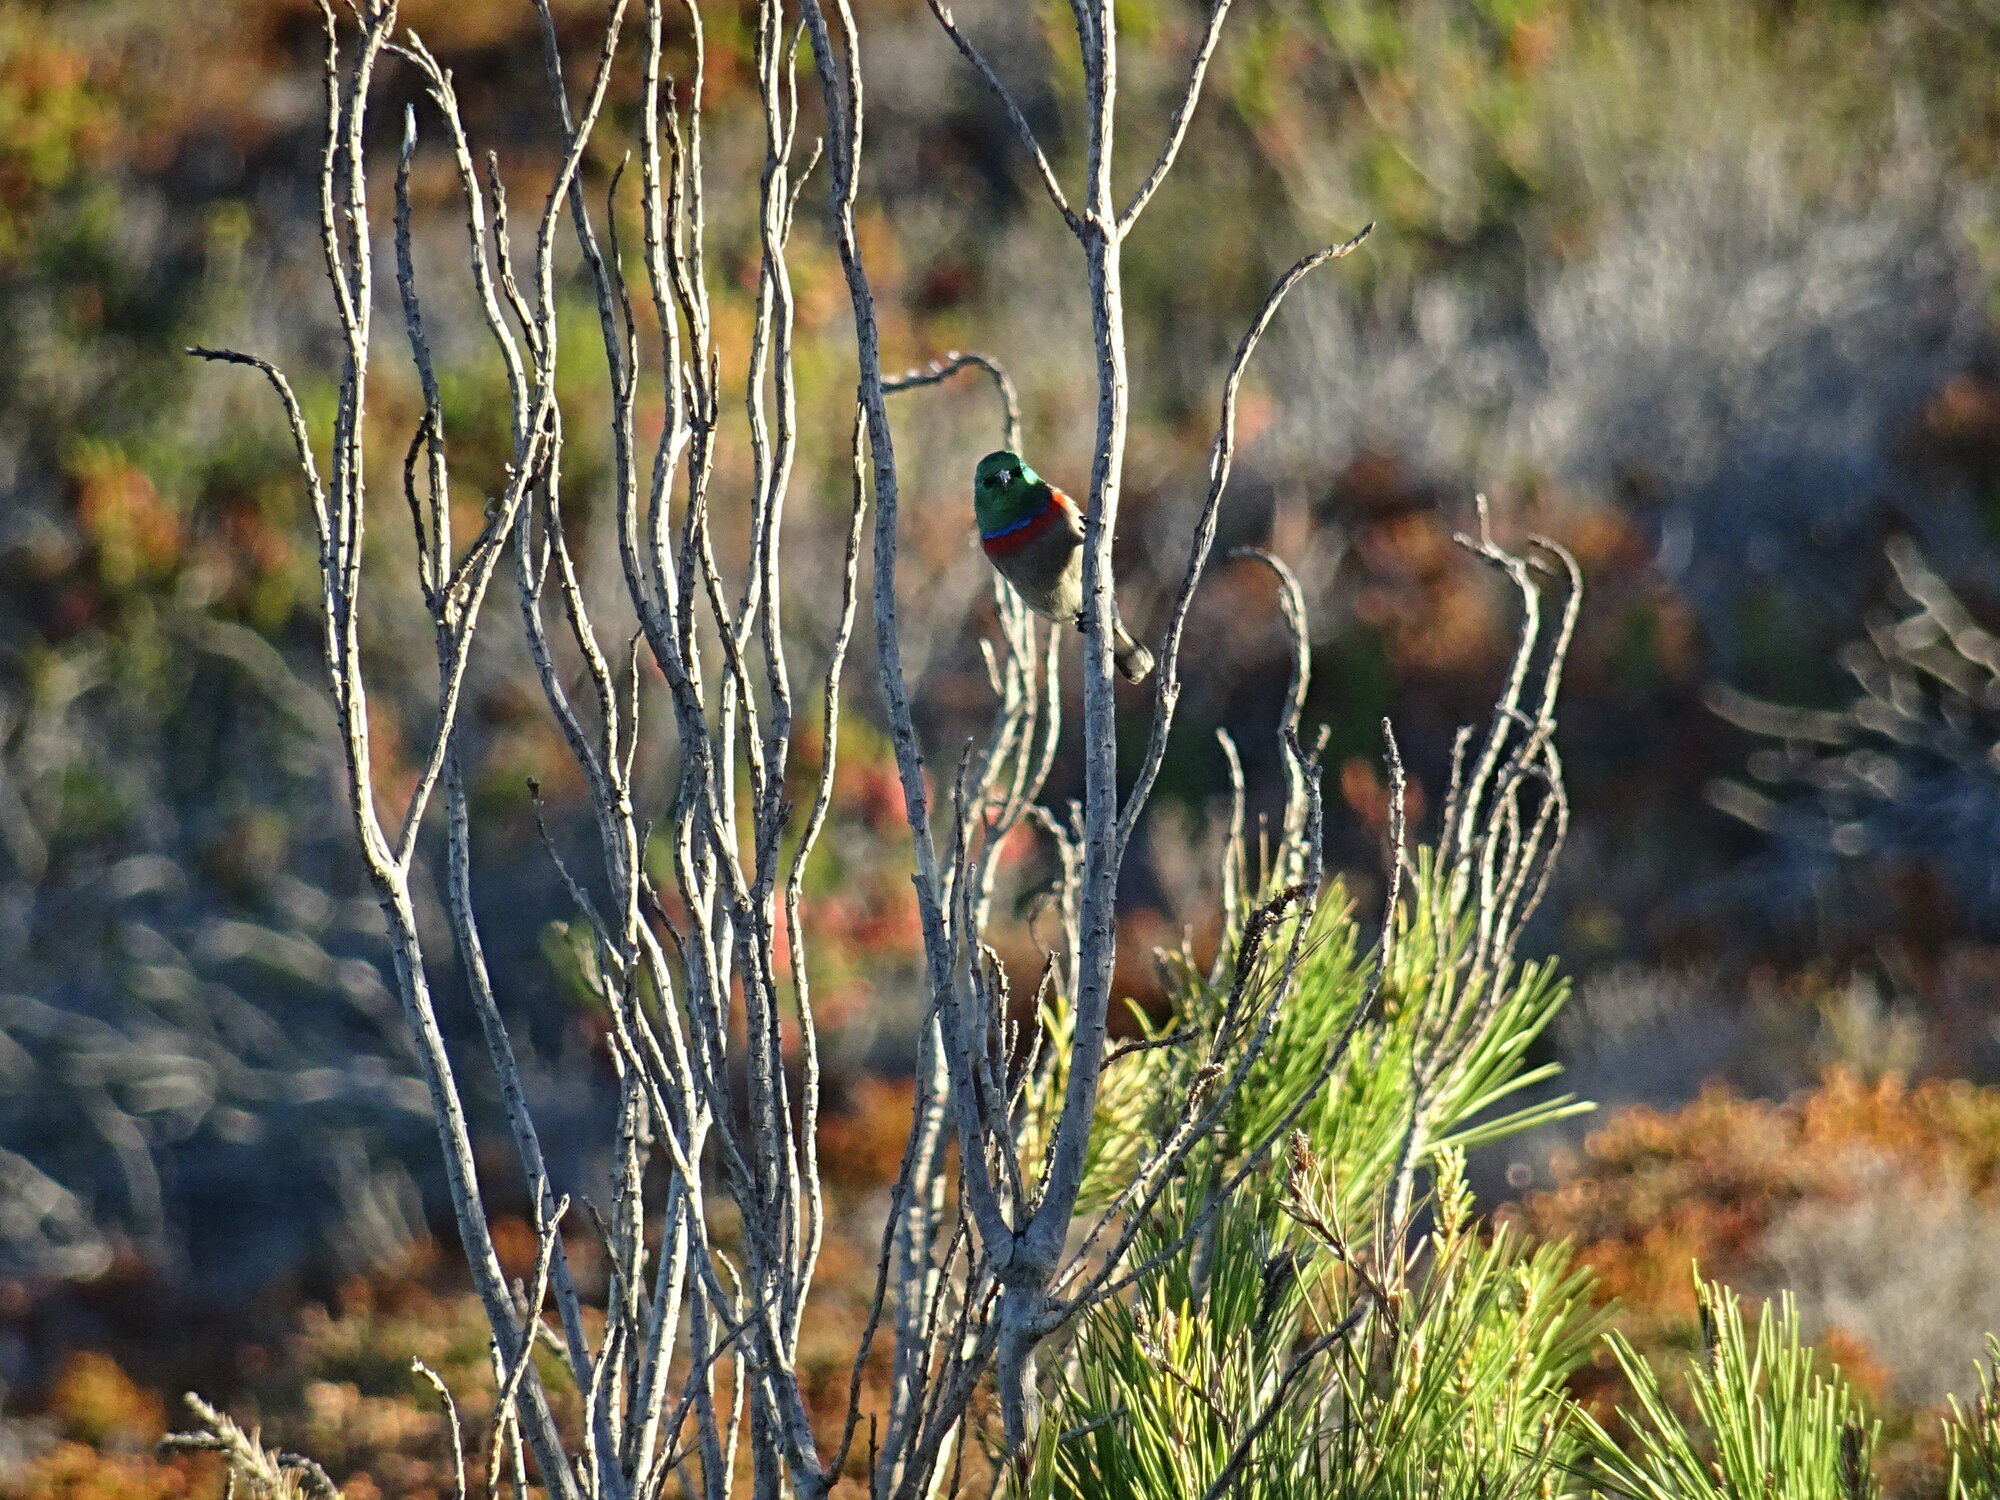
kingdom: Animalia
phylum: Chordata
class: Aves
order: Passeriformes
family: Nectariniidae
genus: Cinnyris
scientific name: Cinnyris chalybeus
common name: Southern double-collared sunbird
